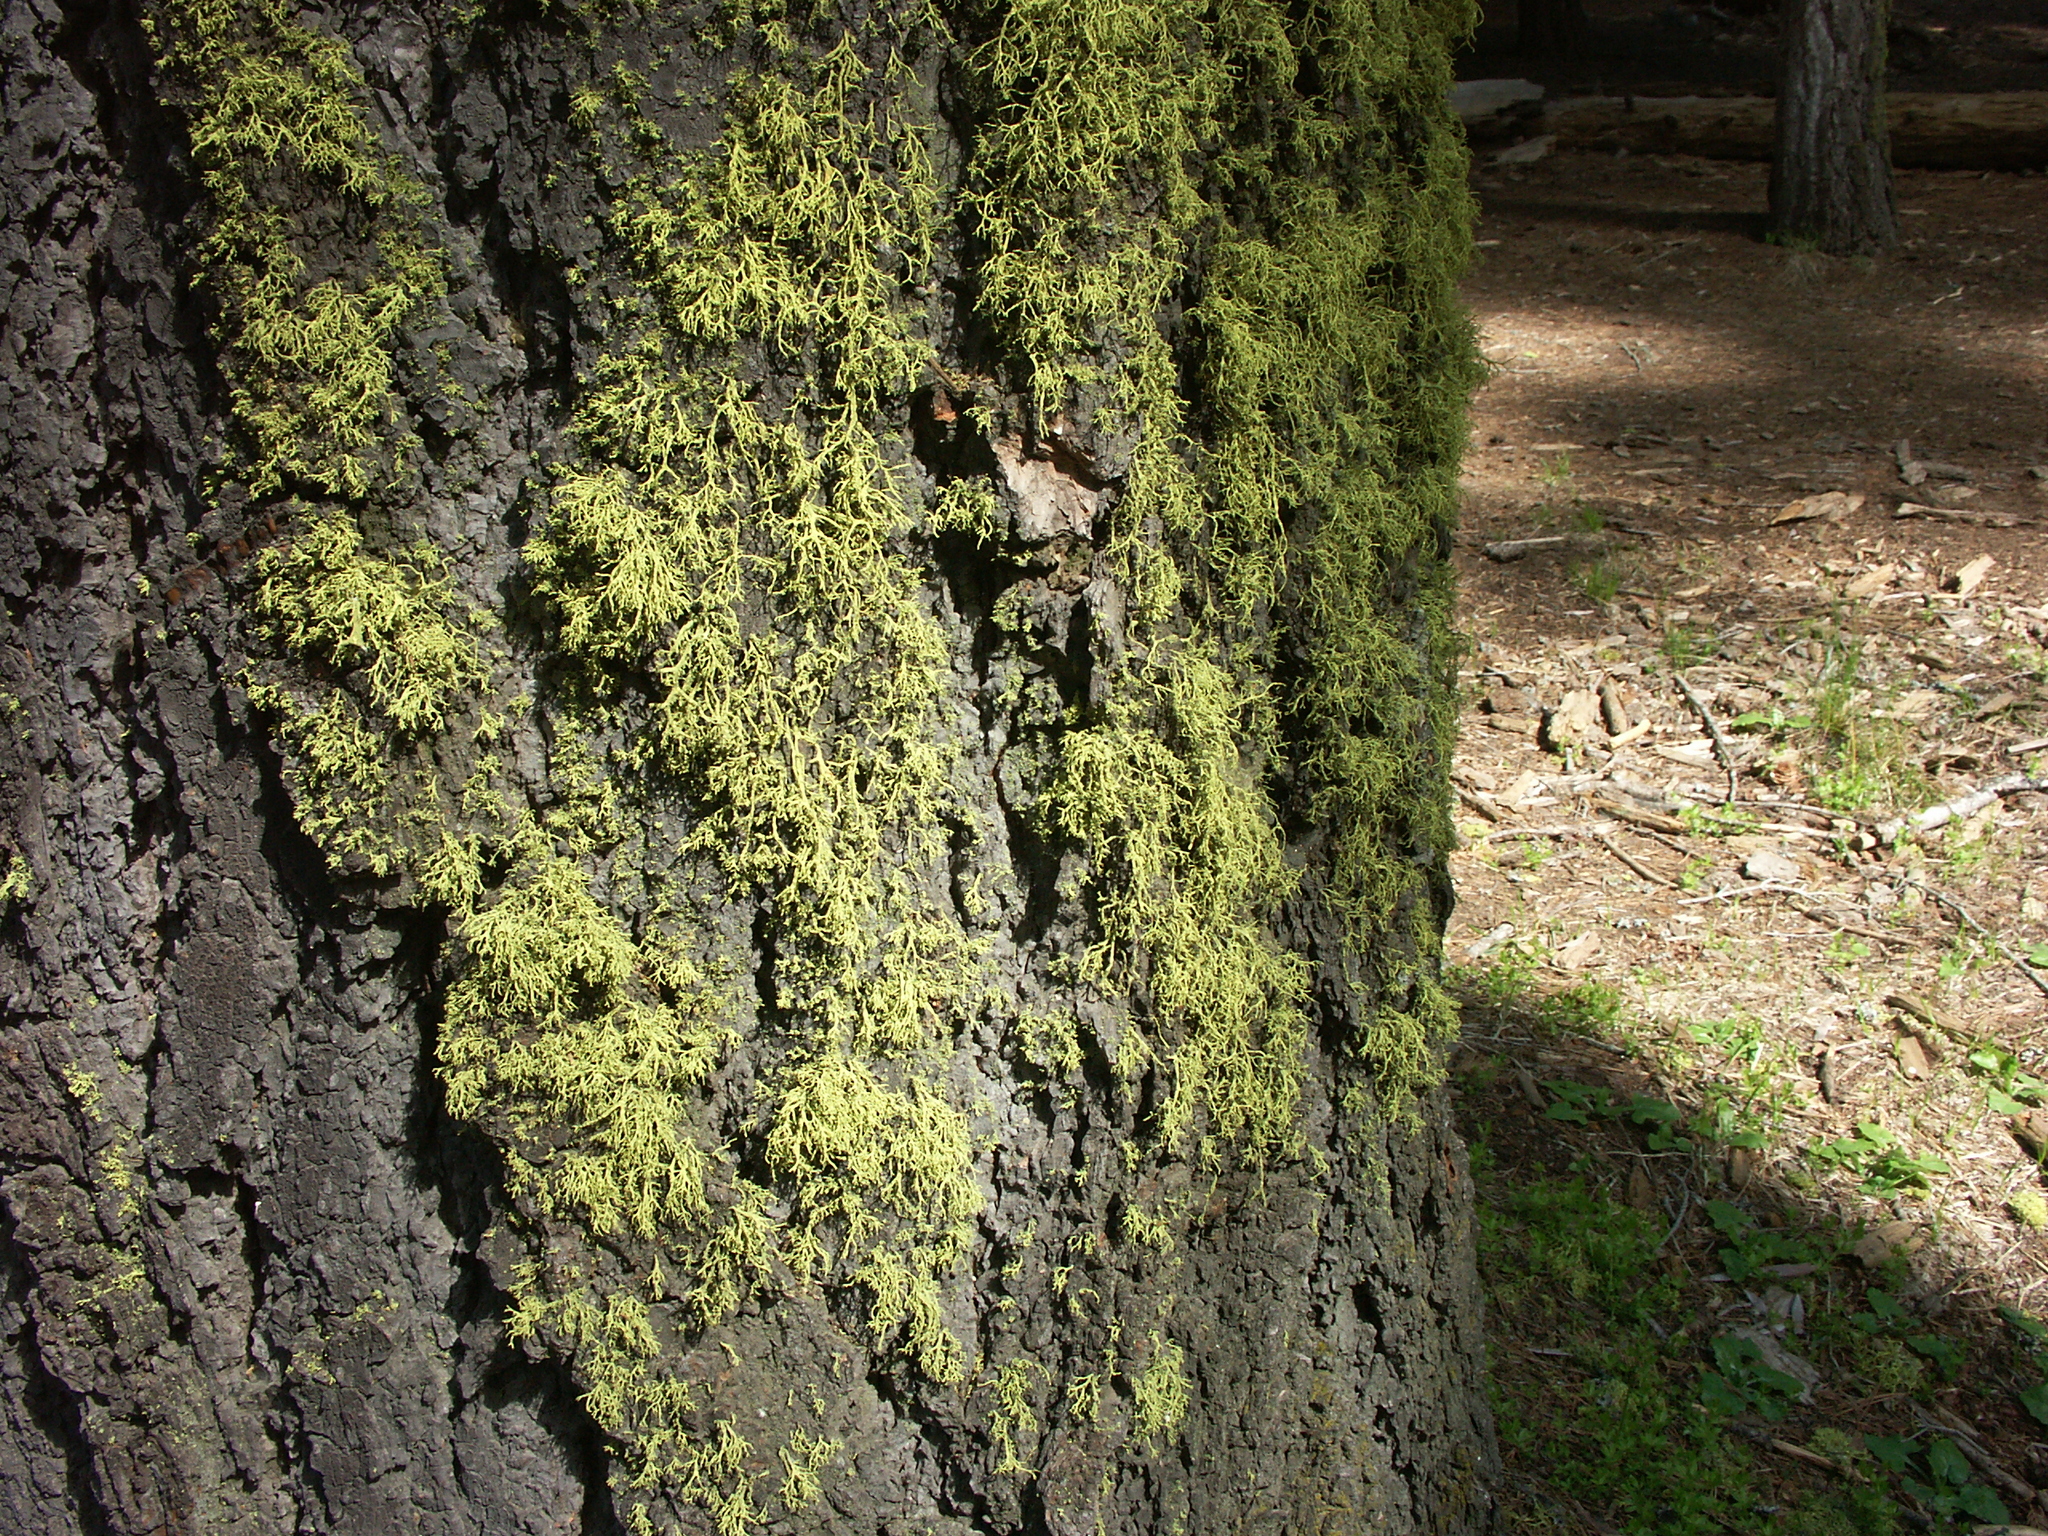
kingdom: Fungi
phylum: Ascomycota
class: Lecanoromycetes
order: Lecanorales
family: Parmeliaceae
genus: Letharia
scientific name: Letharia vulpina
